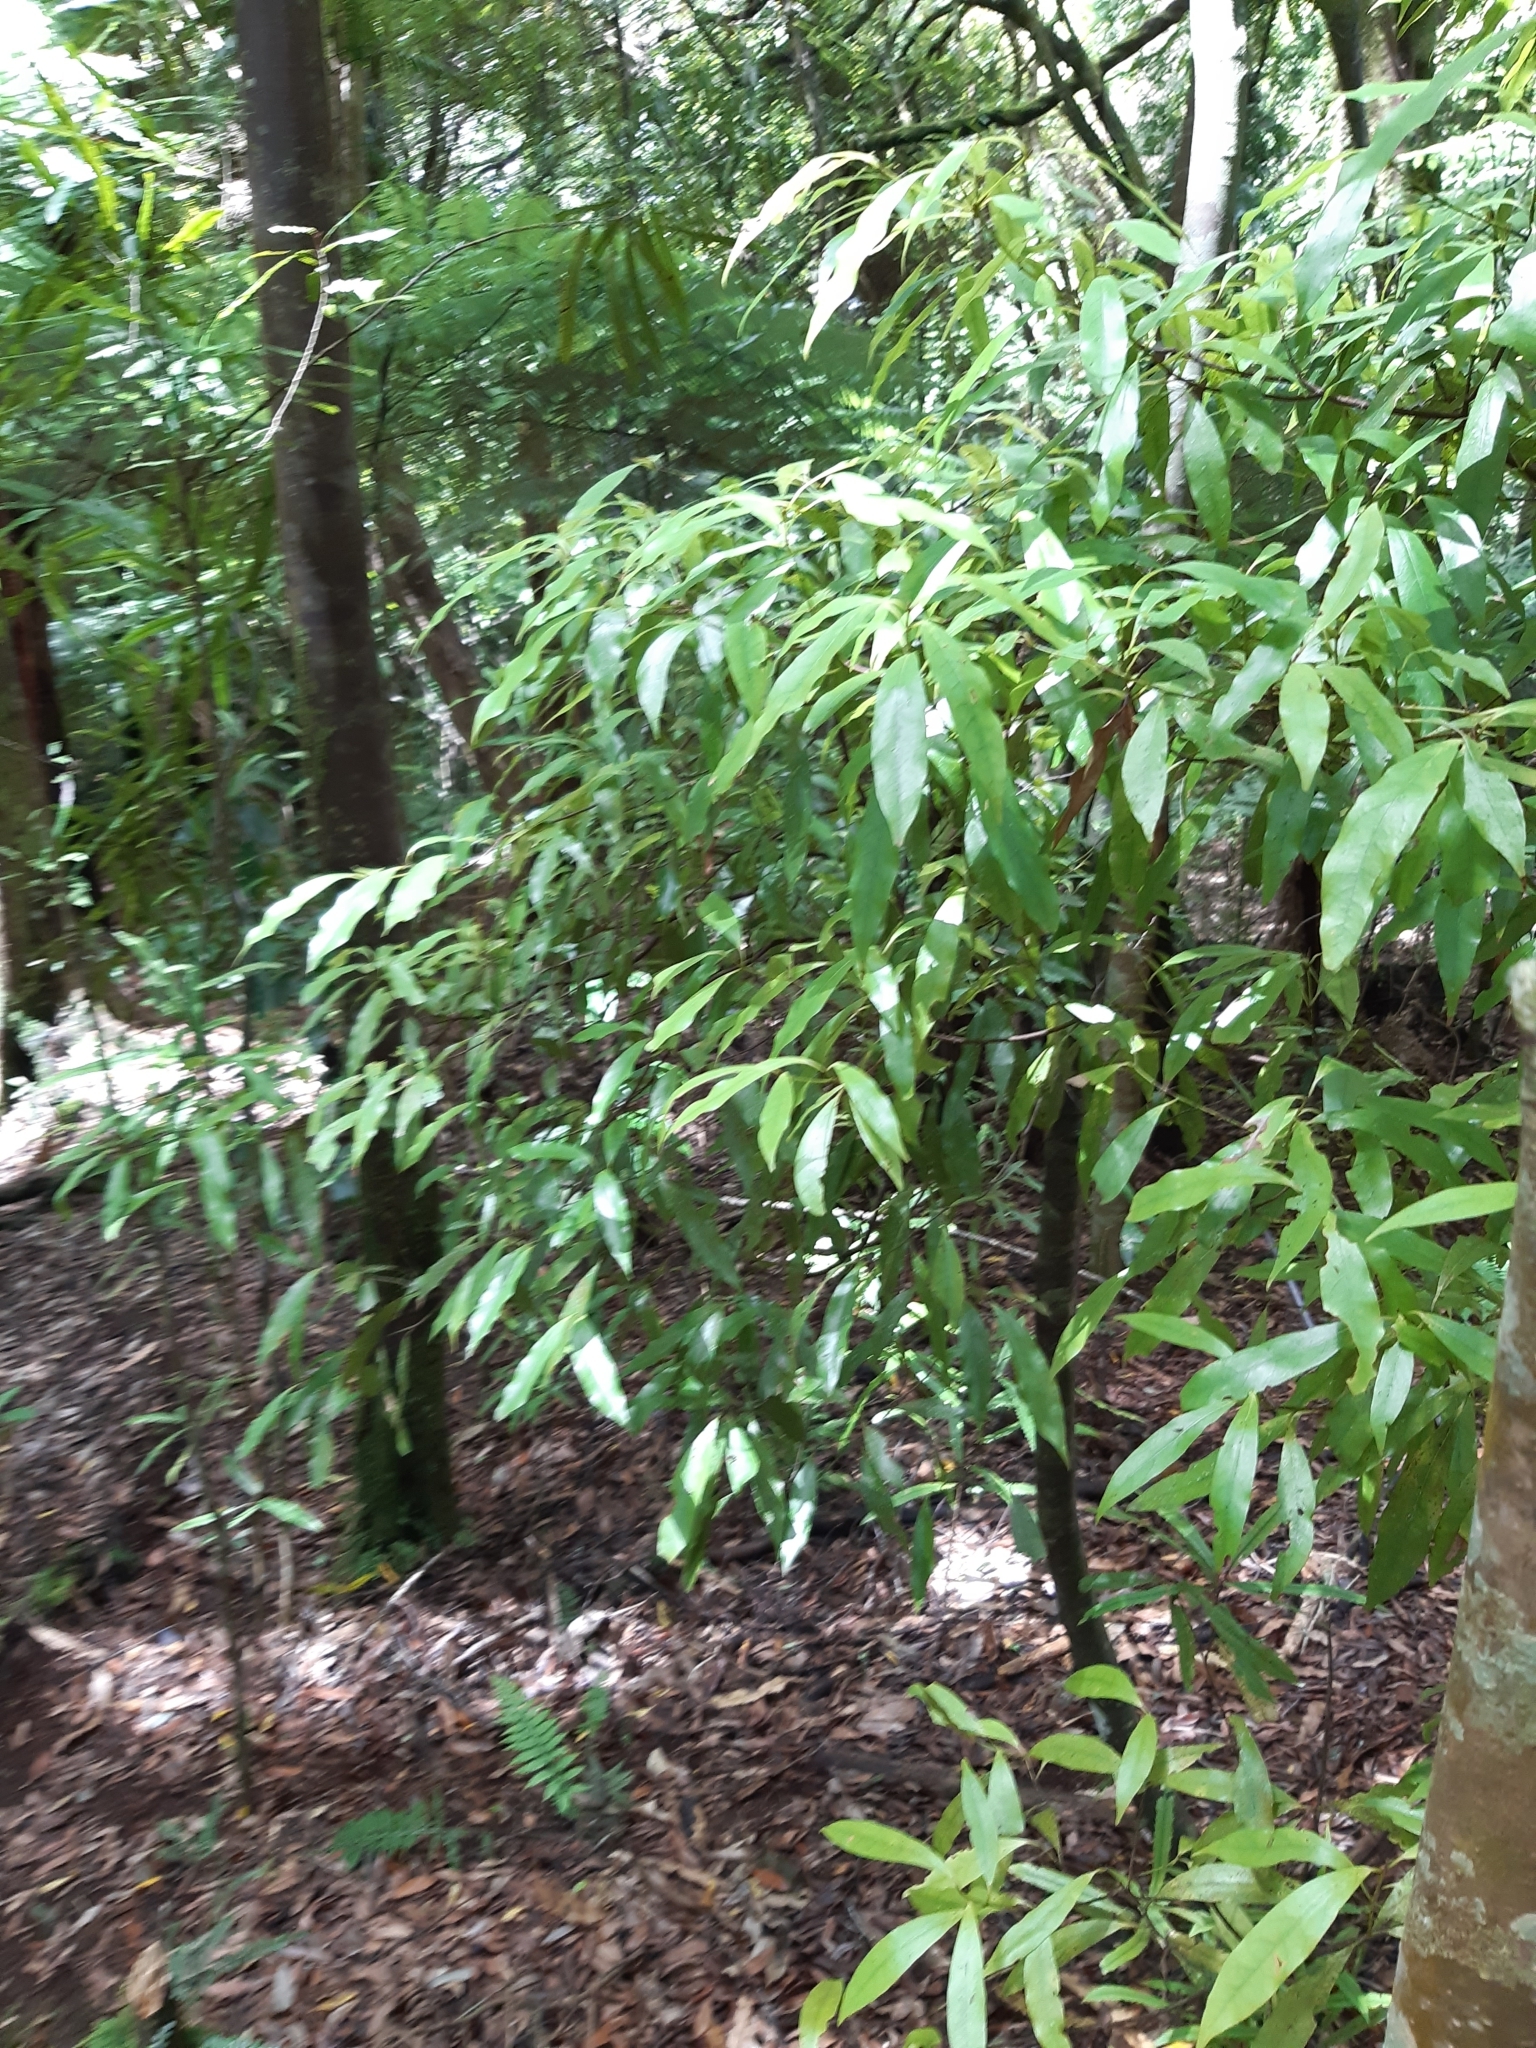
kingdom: Plantae
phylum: Tracheophyta
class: Magnoliopsida
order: Laurales
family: Lauraceae
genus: Beilschmiedia
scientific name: Beilschmiedia tawa
